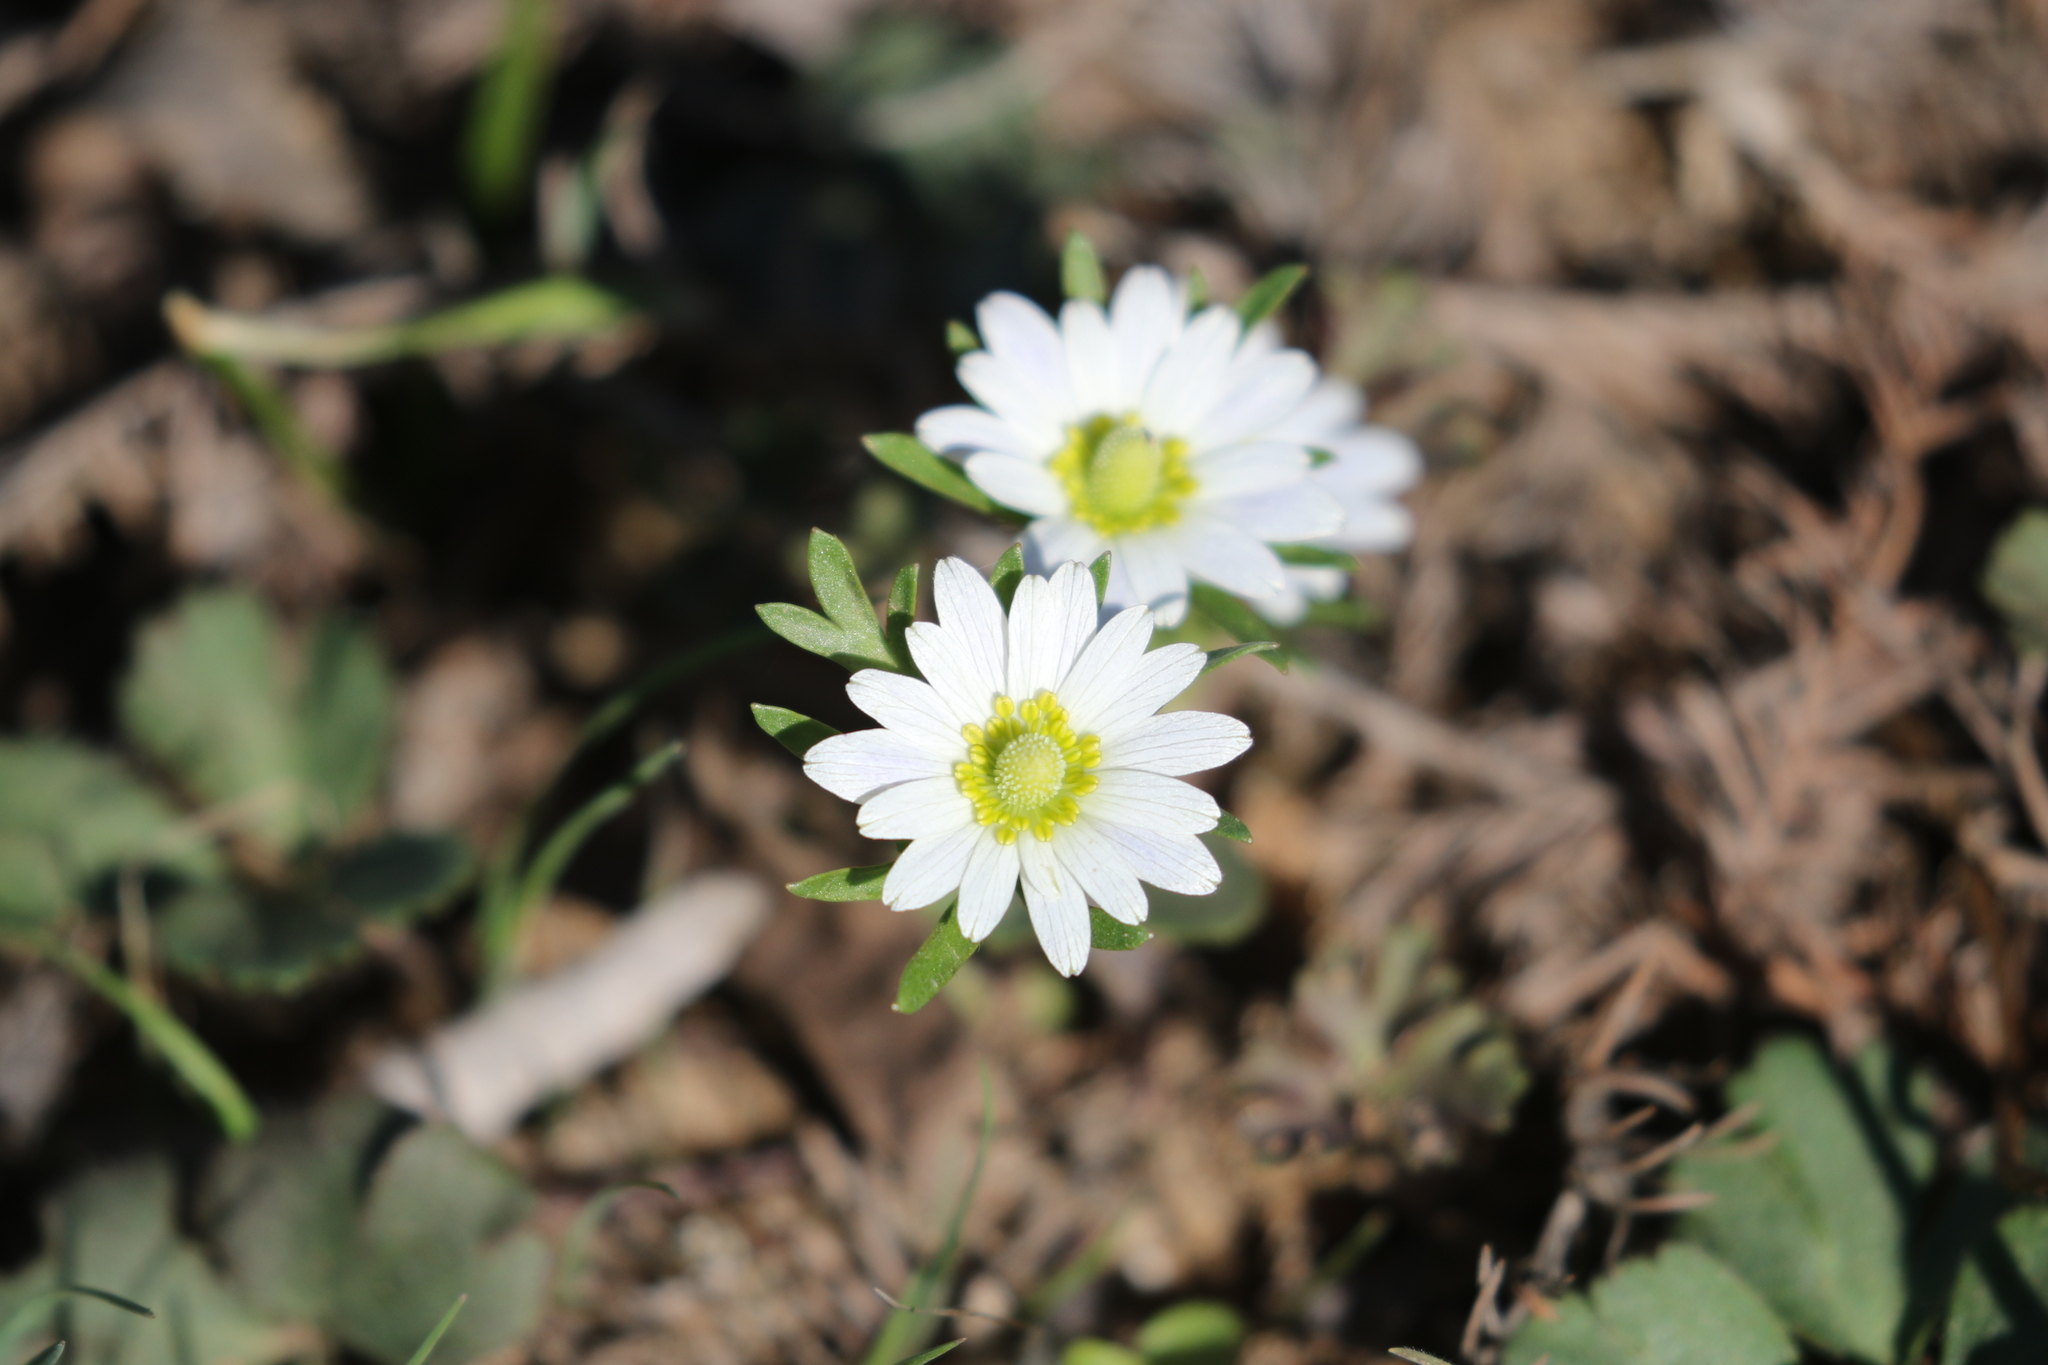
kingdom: Plantae
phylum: Tracheophyta
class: Magnoliopsida
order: Ranunculales
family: Ranunculaceae
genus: Anemone
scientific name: Anemone berlandieri
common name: Ten-petal anemone
